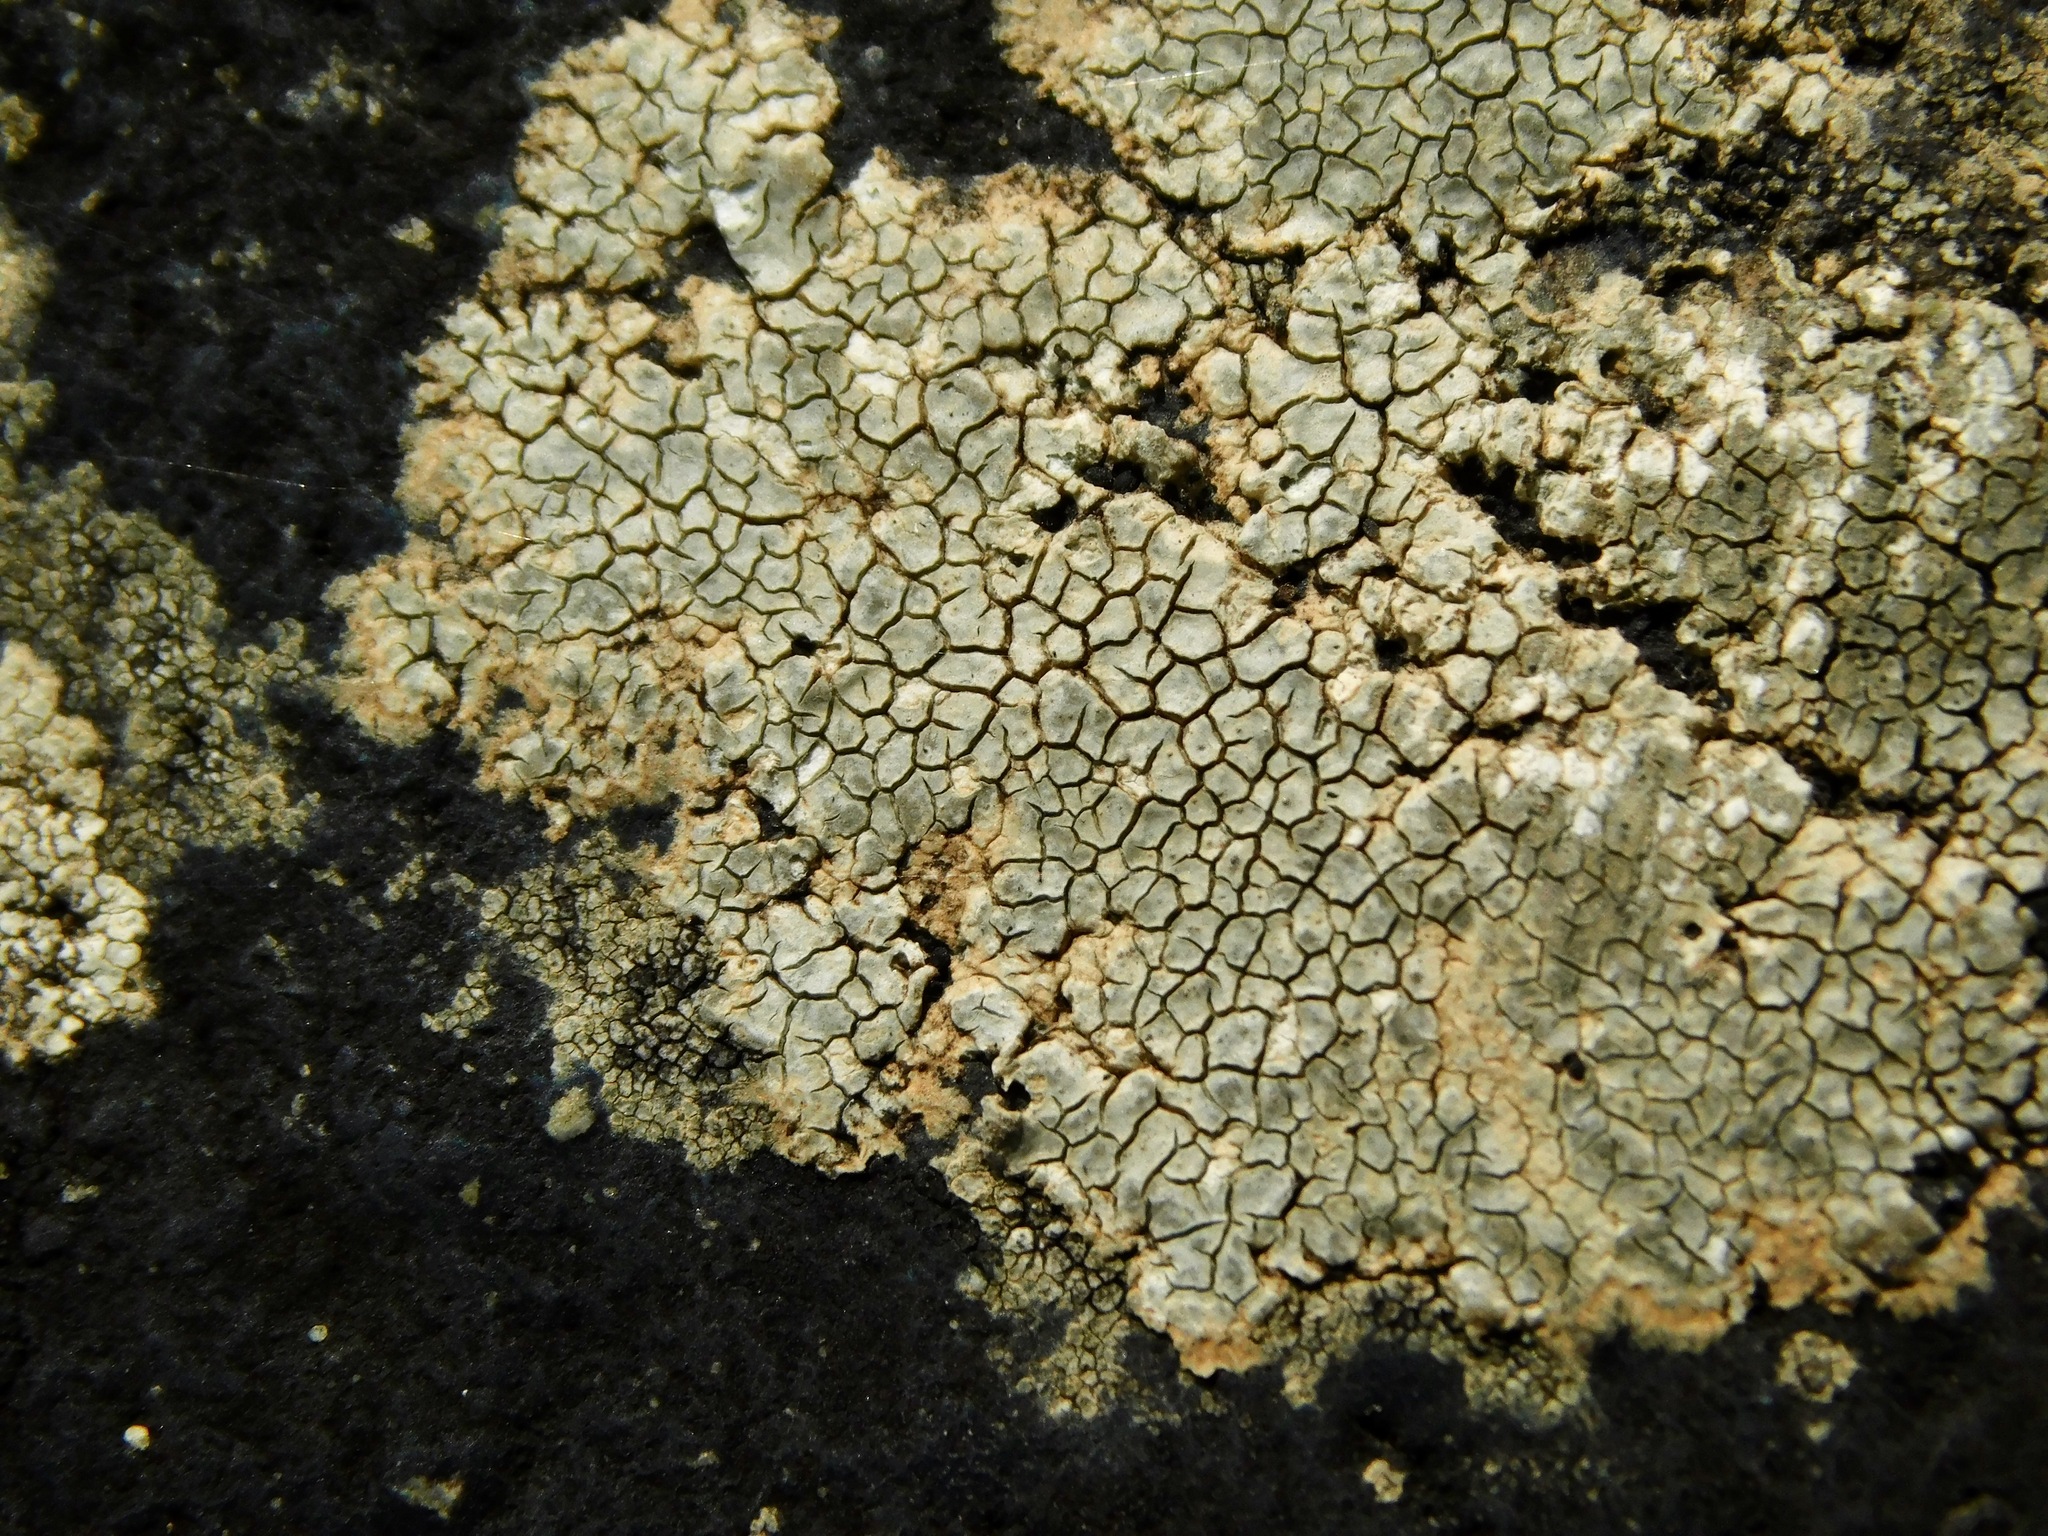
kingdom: Fungi
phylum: Ascomycota
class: Eurotiomycetes
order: Verrucariales
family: Adelococcaceae
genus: Sagediopsis
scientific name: Sagediopsis aquatica
